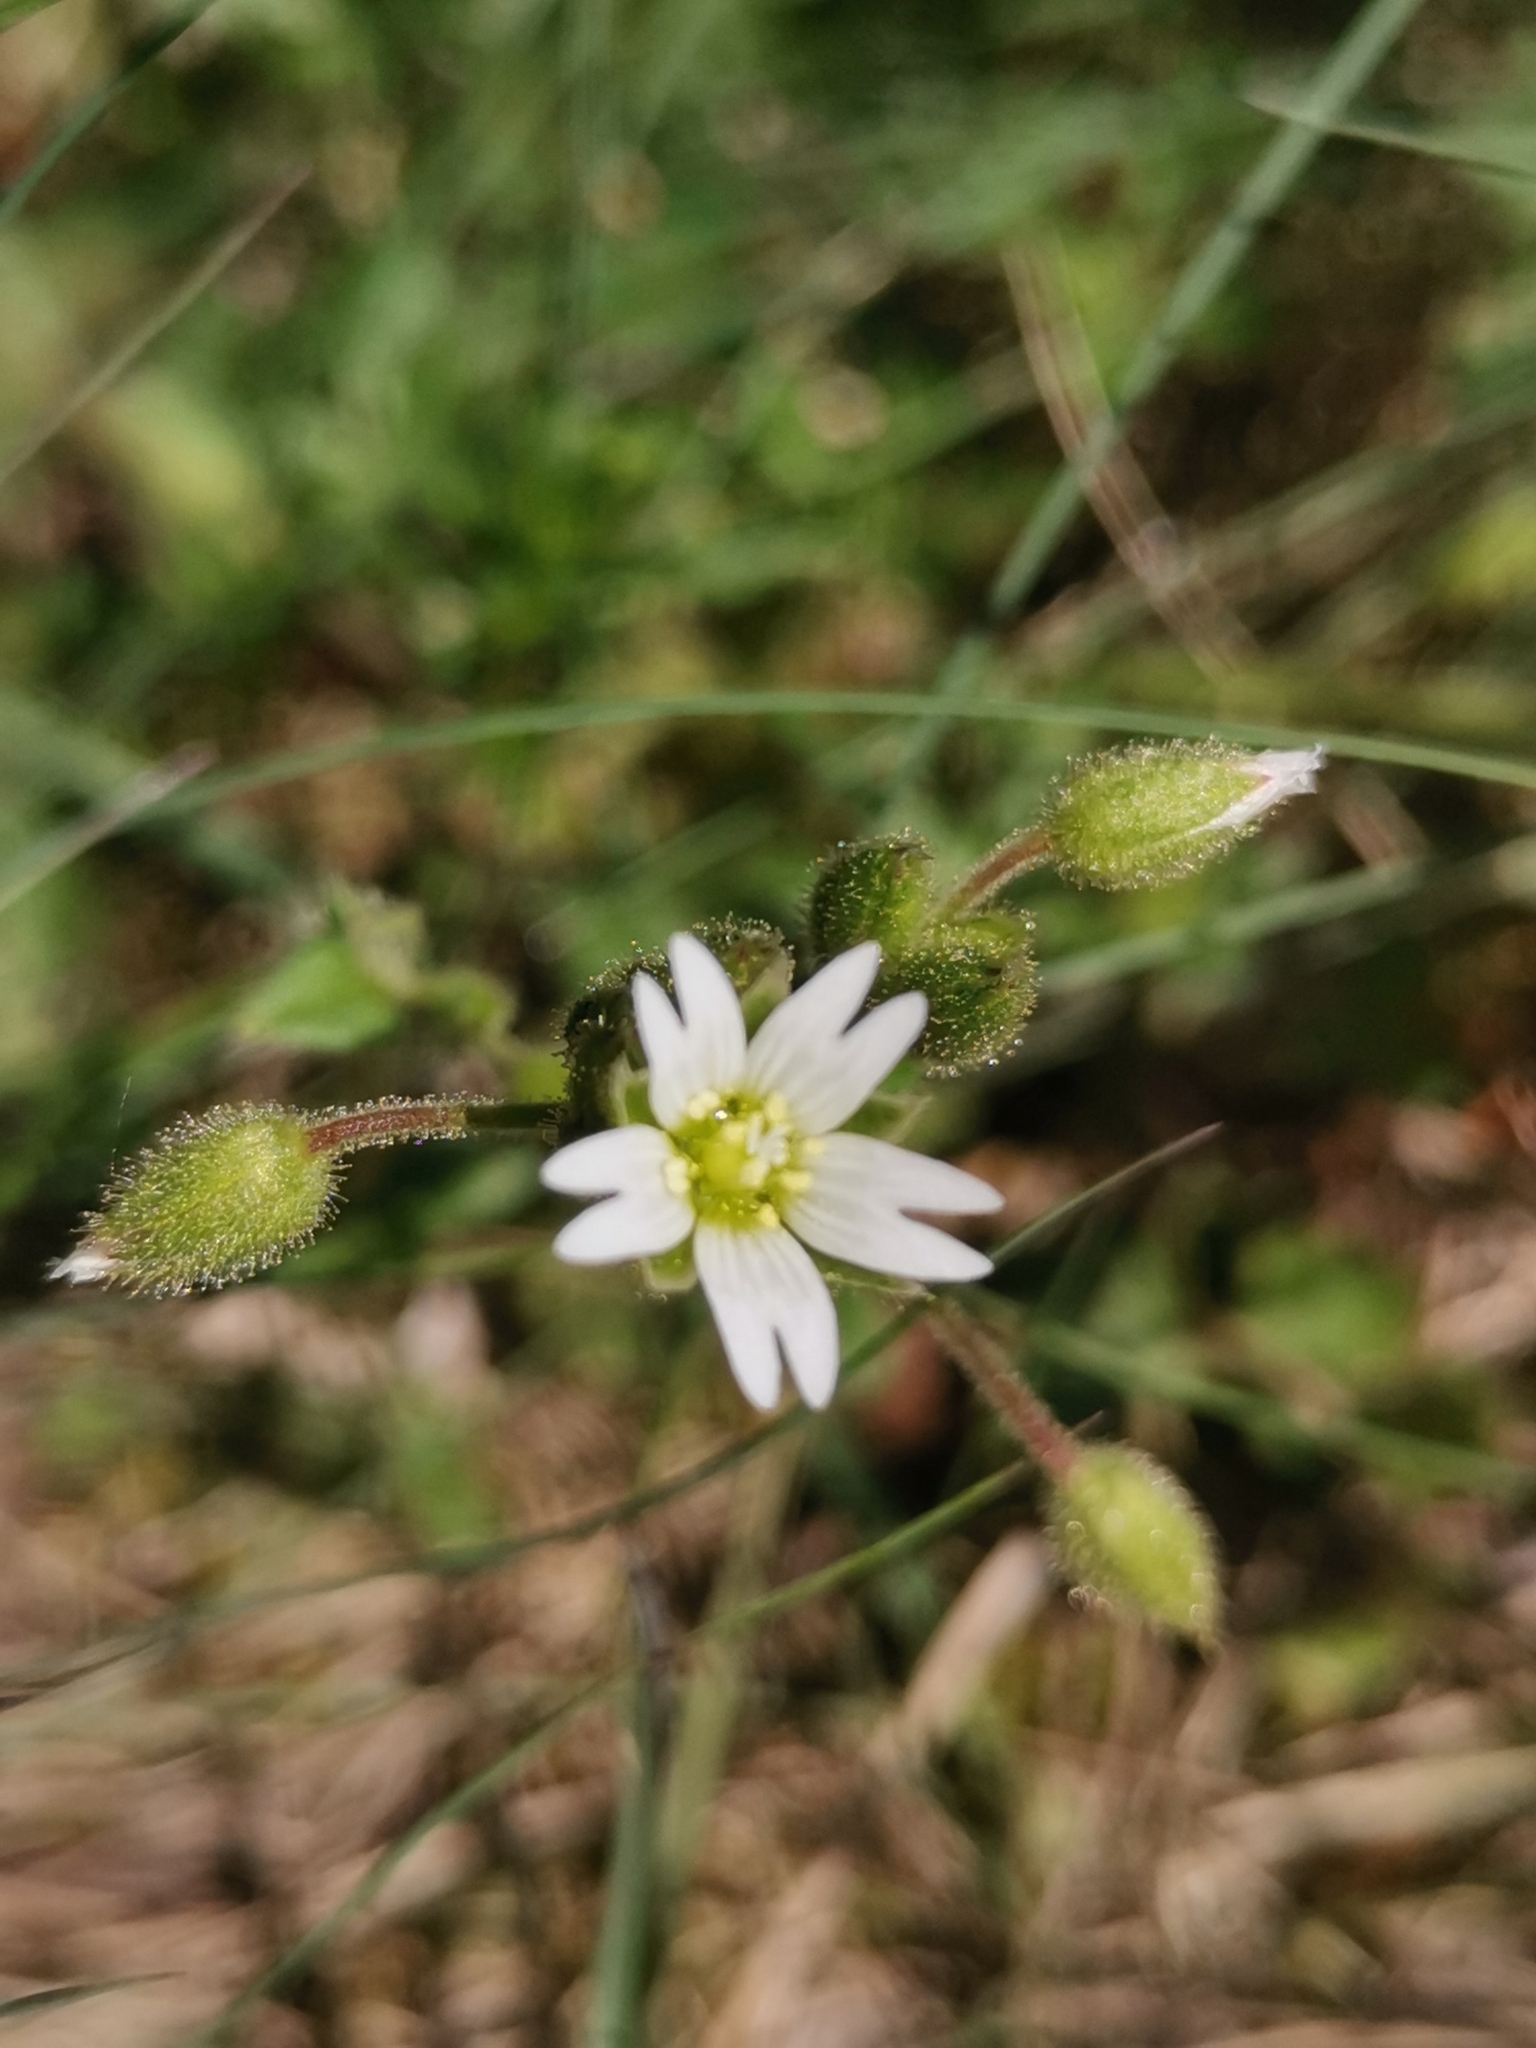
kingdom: Plantae
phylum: Tracheophyta
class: Magnoliopsida
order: Caryophyllales
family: Caryophyllaceae
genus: Cerastium
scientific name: Cerastium glutinosum
